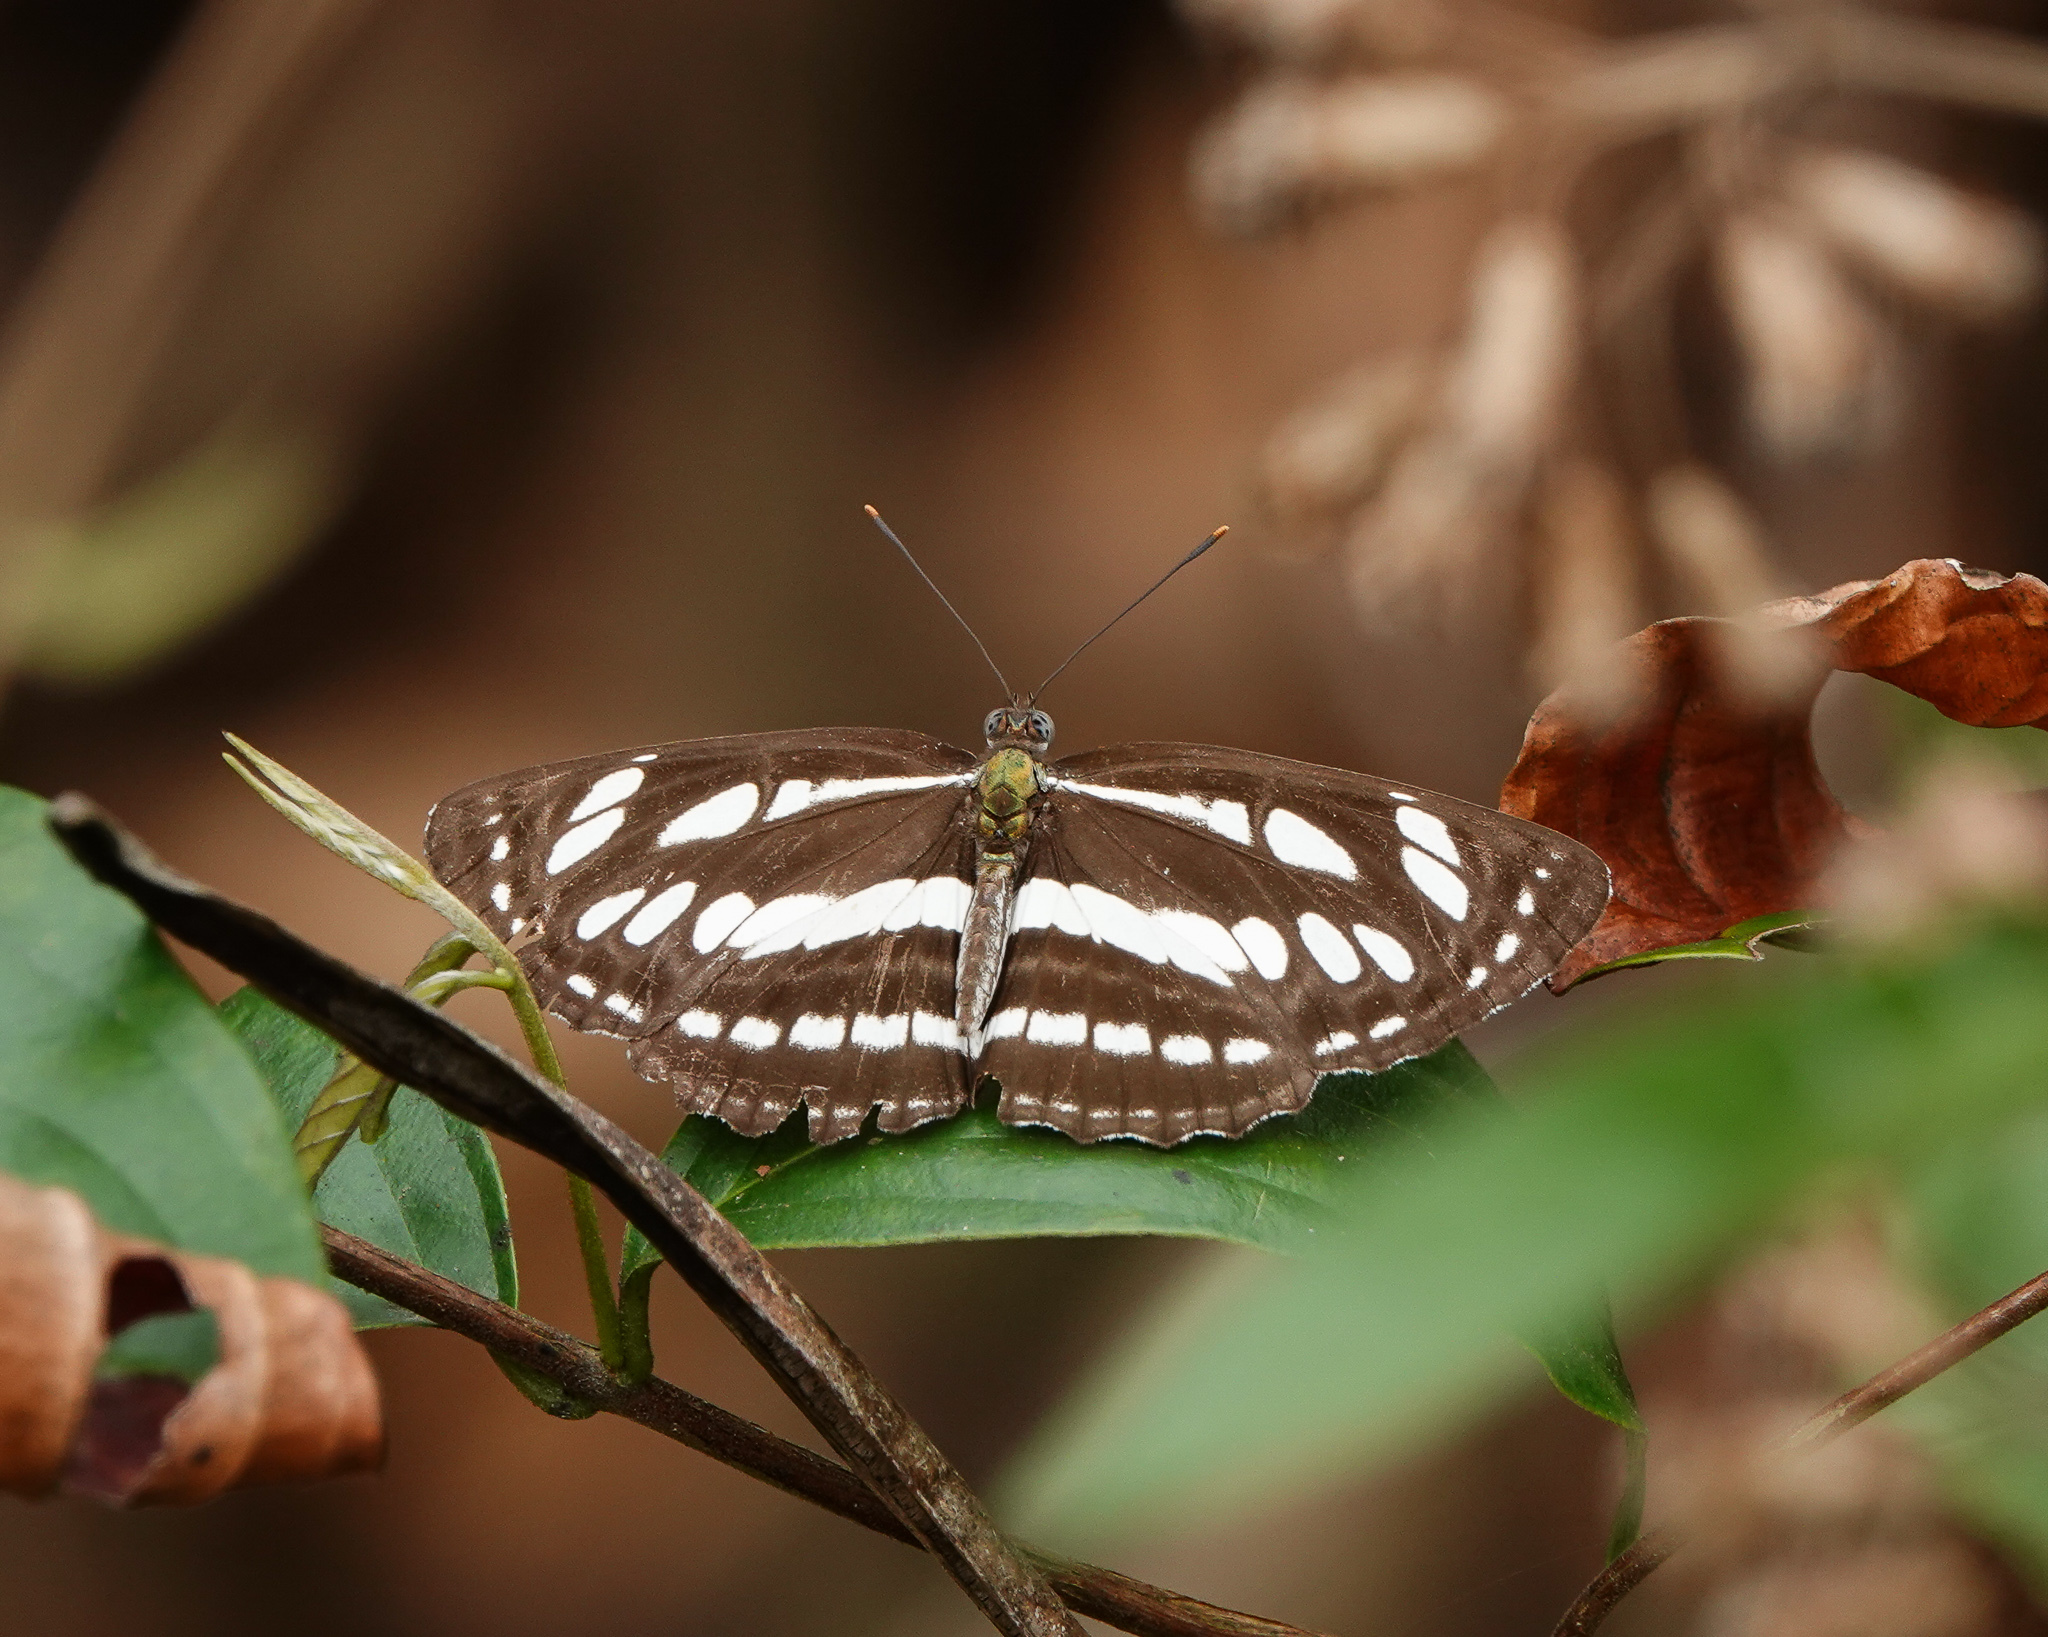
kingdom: Animalia
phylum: Arthropoda
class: Insecta
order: Lepidoptera
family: Nymphalidae
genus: Neptis
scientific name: Neptis hylas
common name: Common sailer
